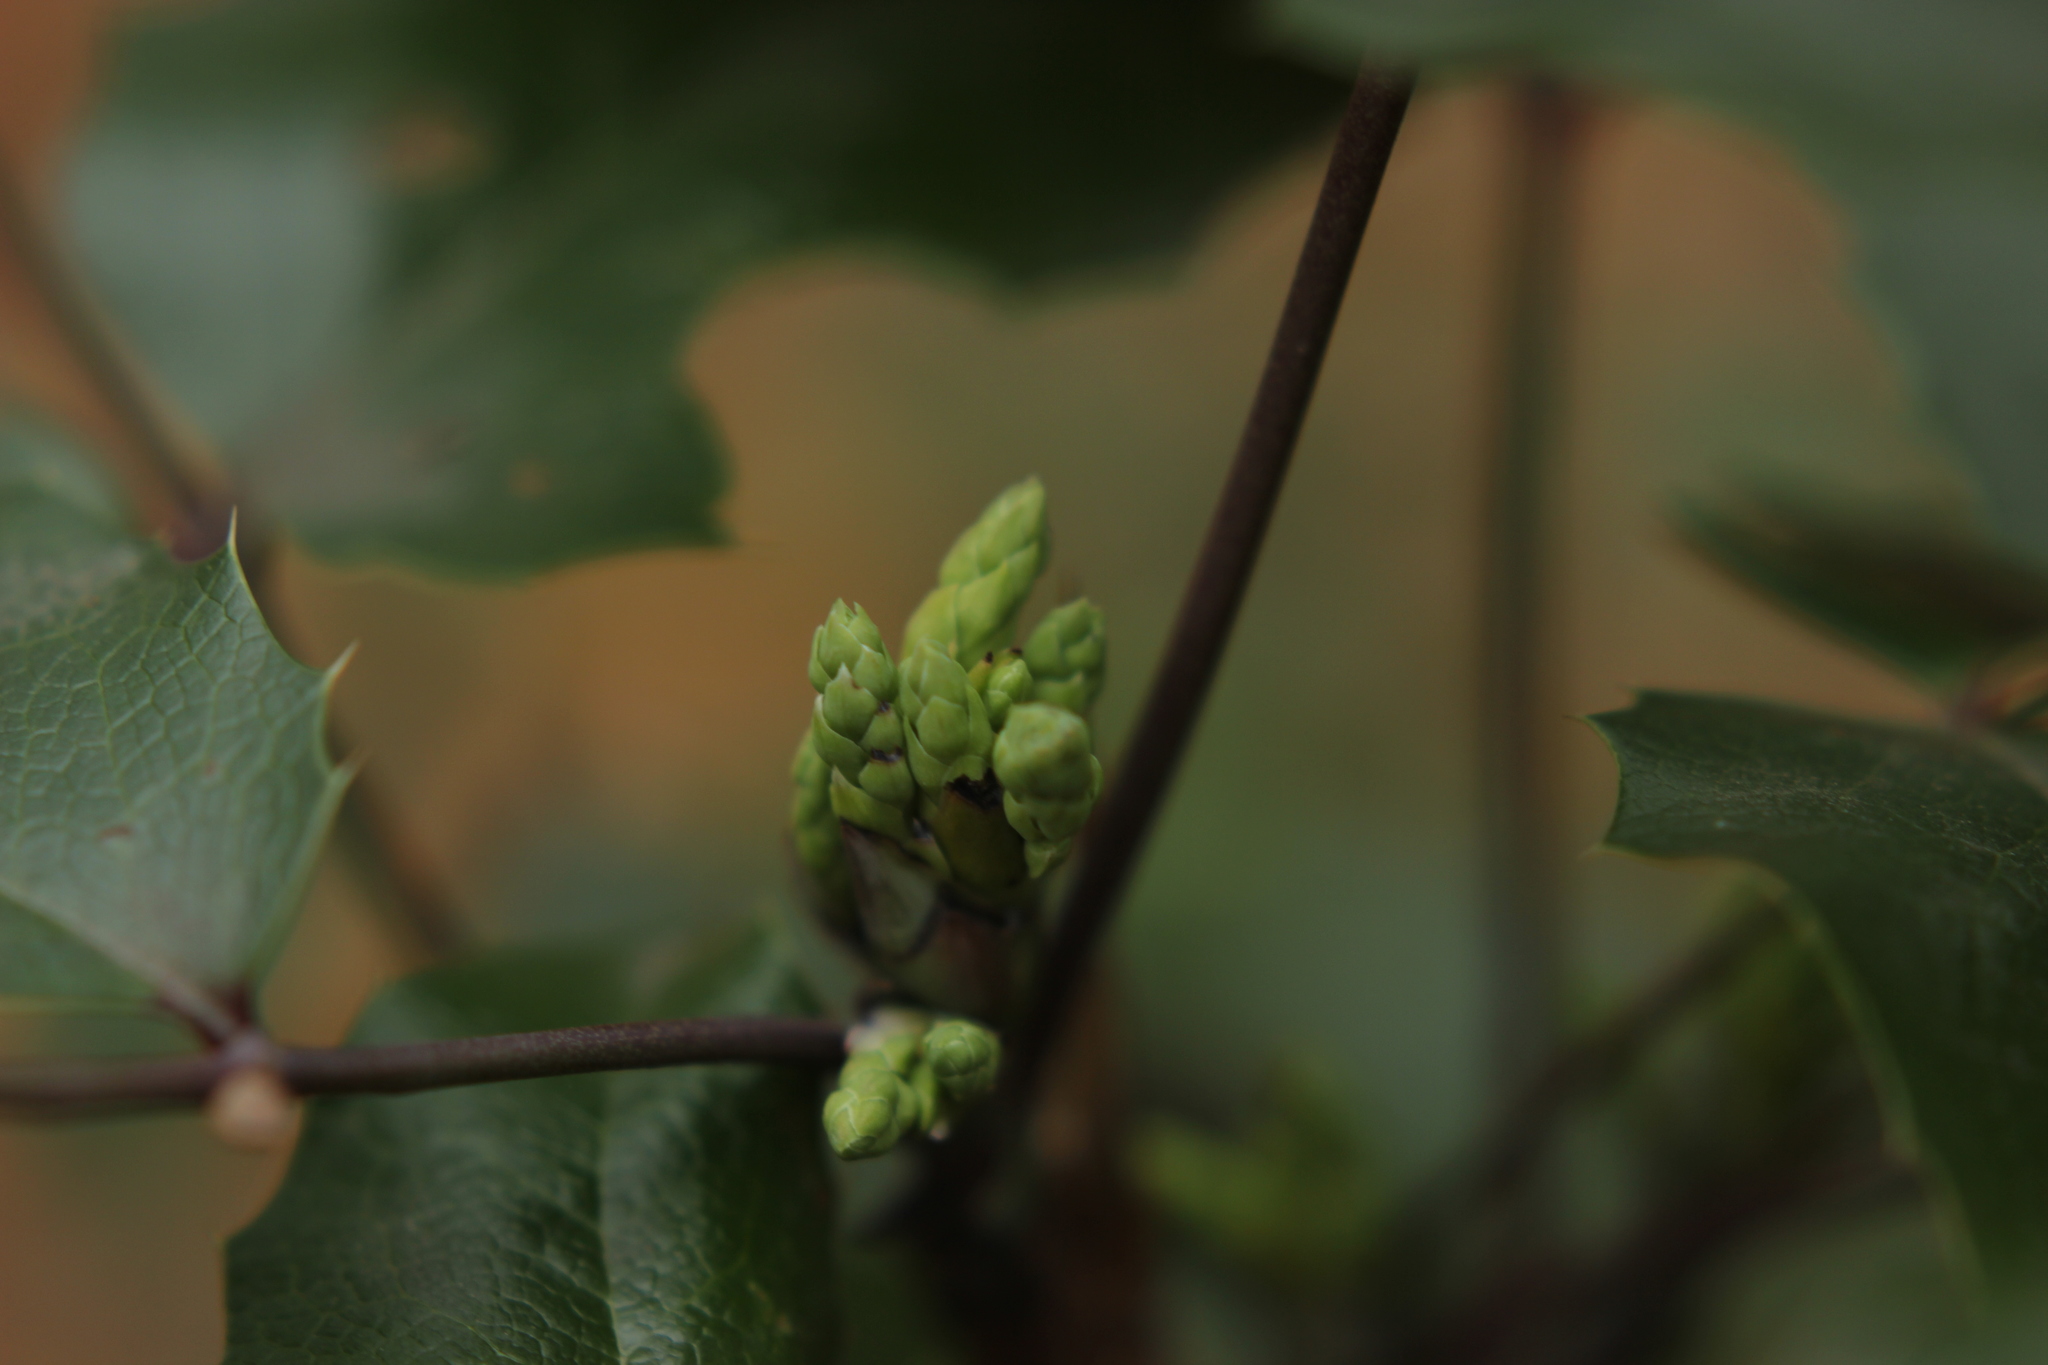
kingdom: Plantae
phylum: Tracheophyta
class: Magnoliopsida
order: Ranunculales
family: Berberidaceae
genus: Mahonia
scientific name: Mahonia aquifolium
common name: Oregon-grape
